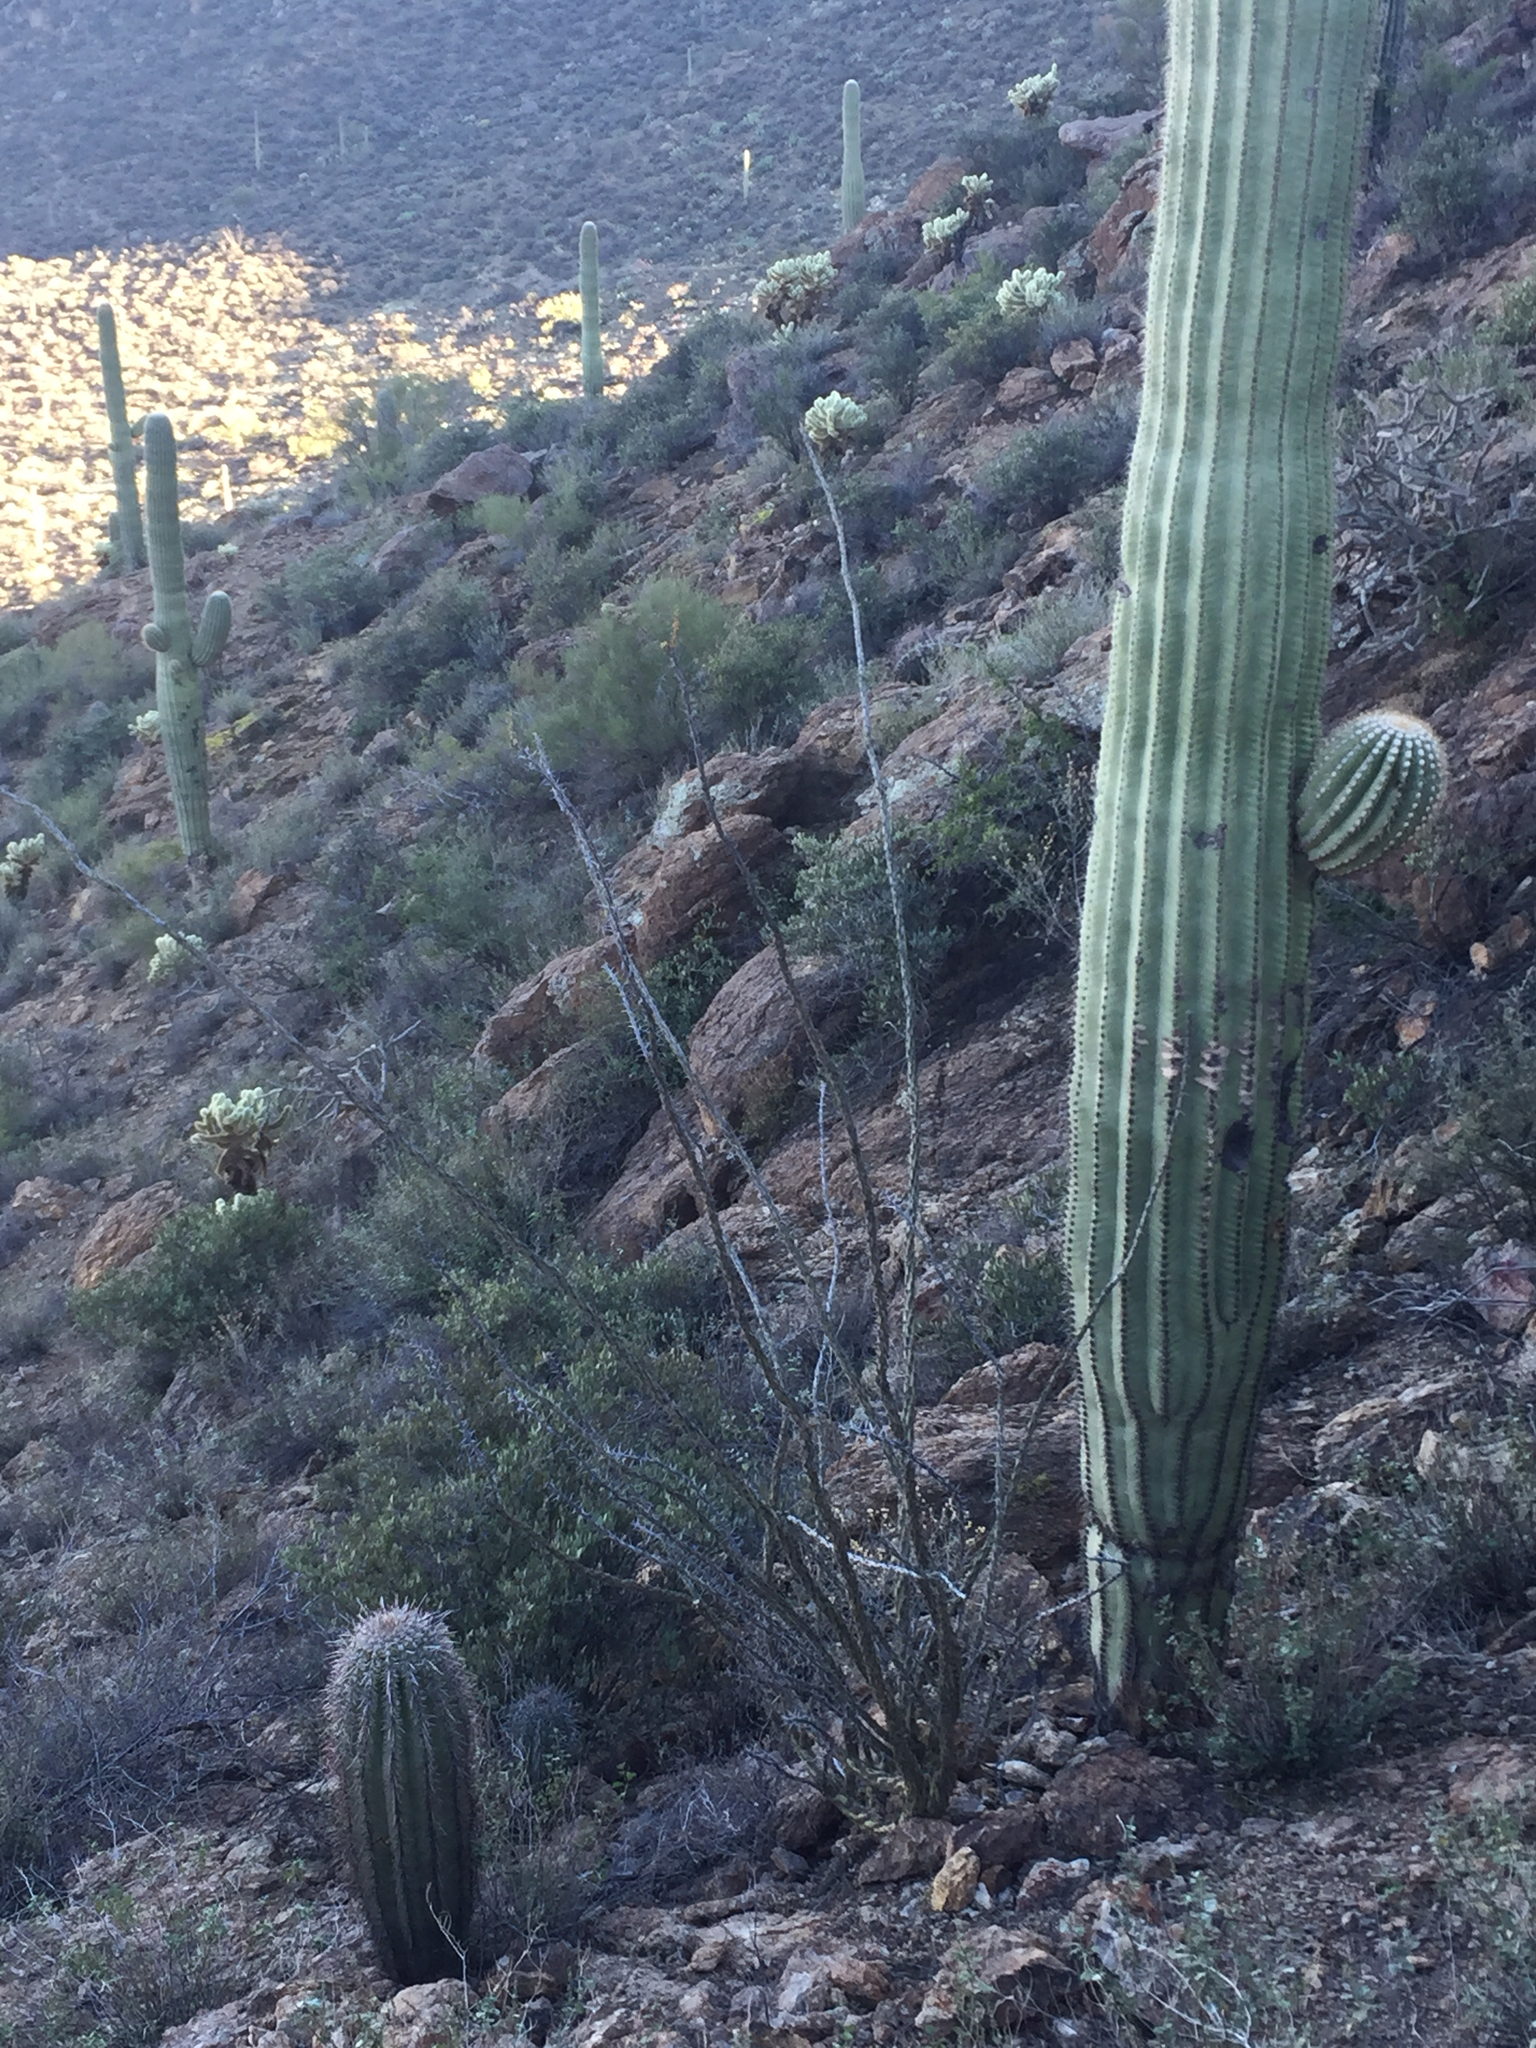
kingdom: Plantae
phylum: Tracheophyta
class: Magnoliopsida
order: Ericales
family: Fouquieriaceae
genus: Fouquieria
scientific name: Fouquieria splendens
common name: Vine-cactus
